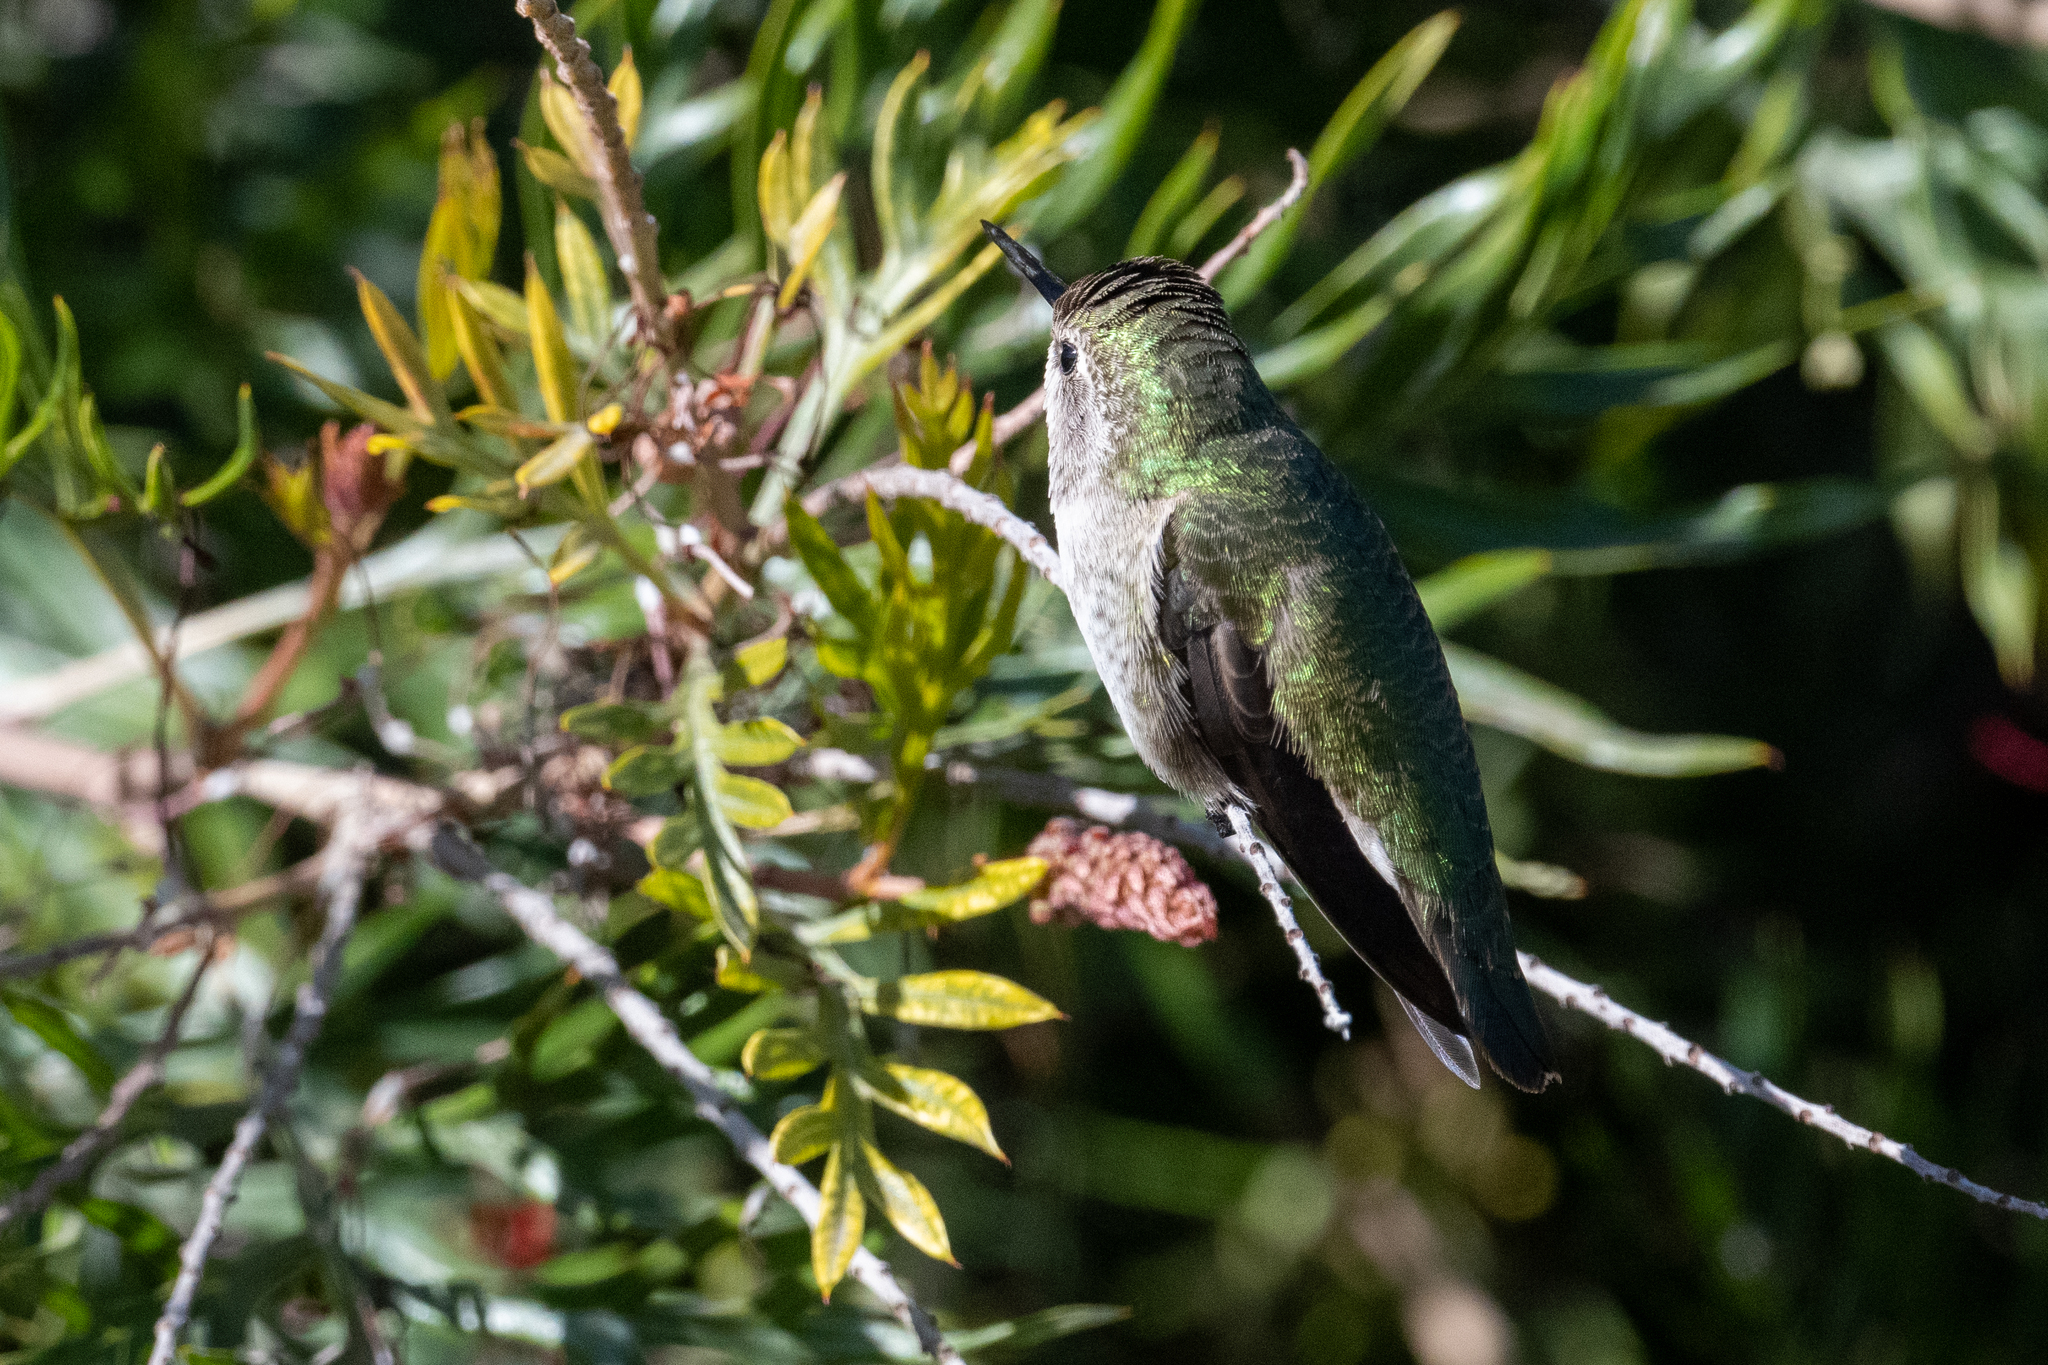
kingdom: Animalia
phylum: Chordata
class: Aves
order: Apodiformes
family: Trochilidae
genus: Calypte
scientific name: Calypte anna
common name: Anna's hummingbird
